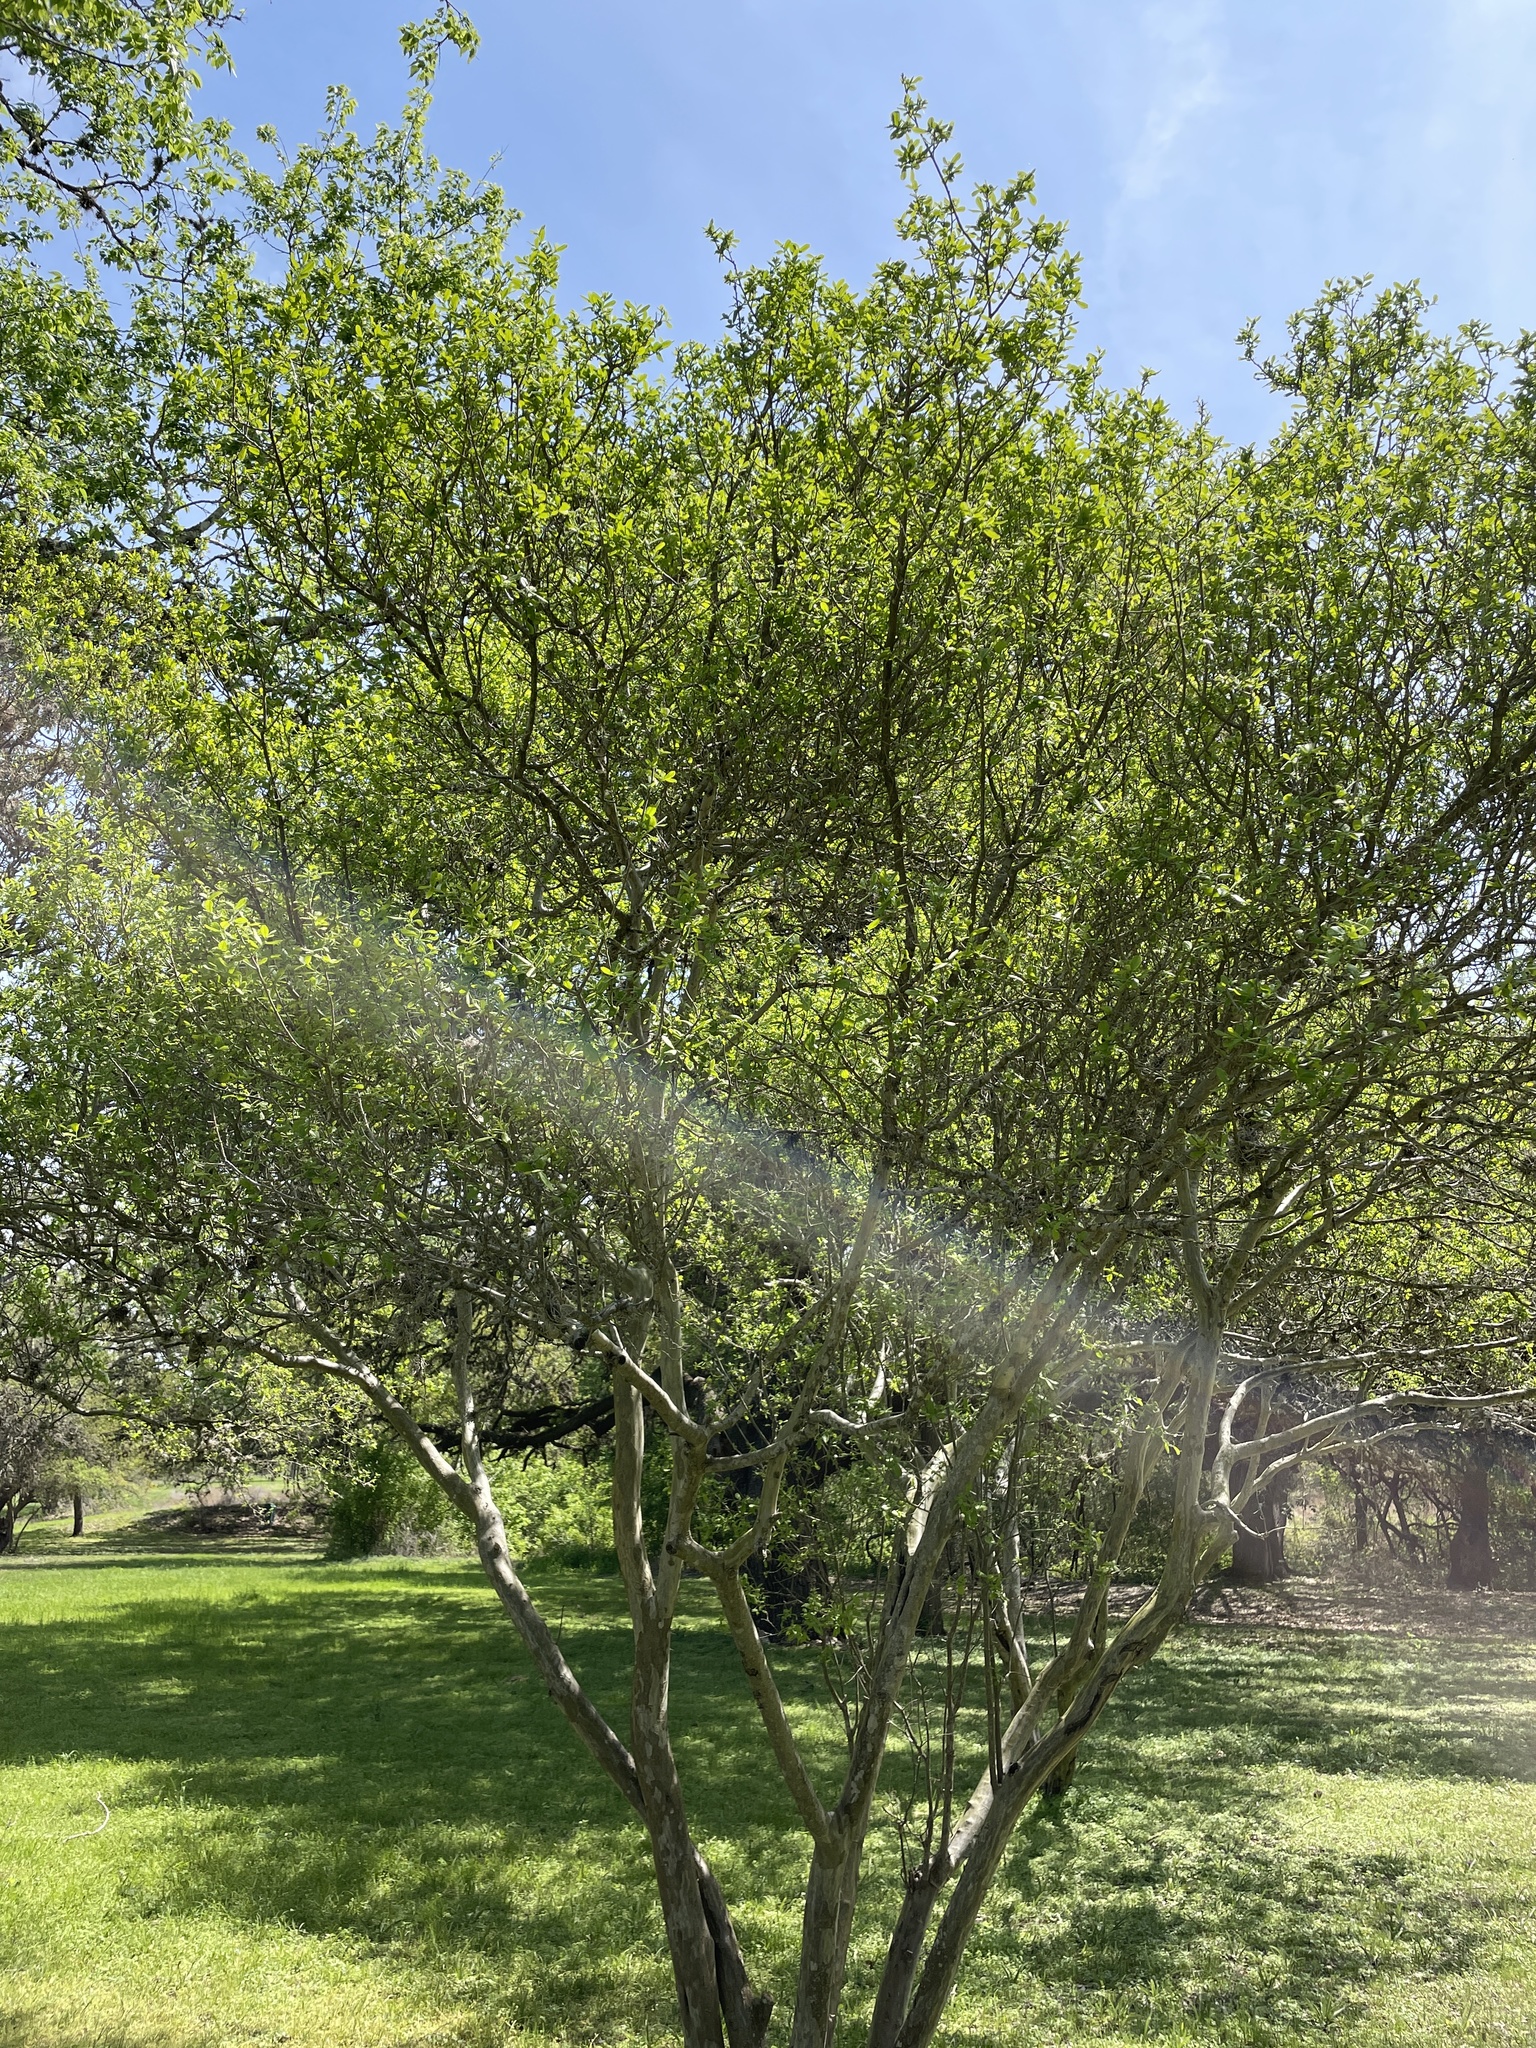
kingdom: Plantae
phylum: Tracheophyta
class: Magnoliopsida
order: Ericales
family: Ebenaceae
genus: Diospyros
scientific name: Diospyros texana
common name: Texas persimmon
